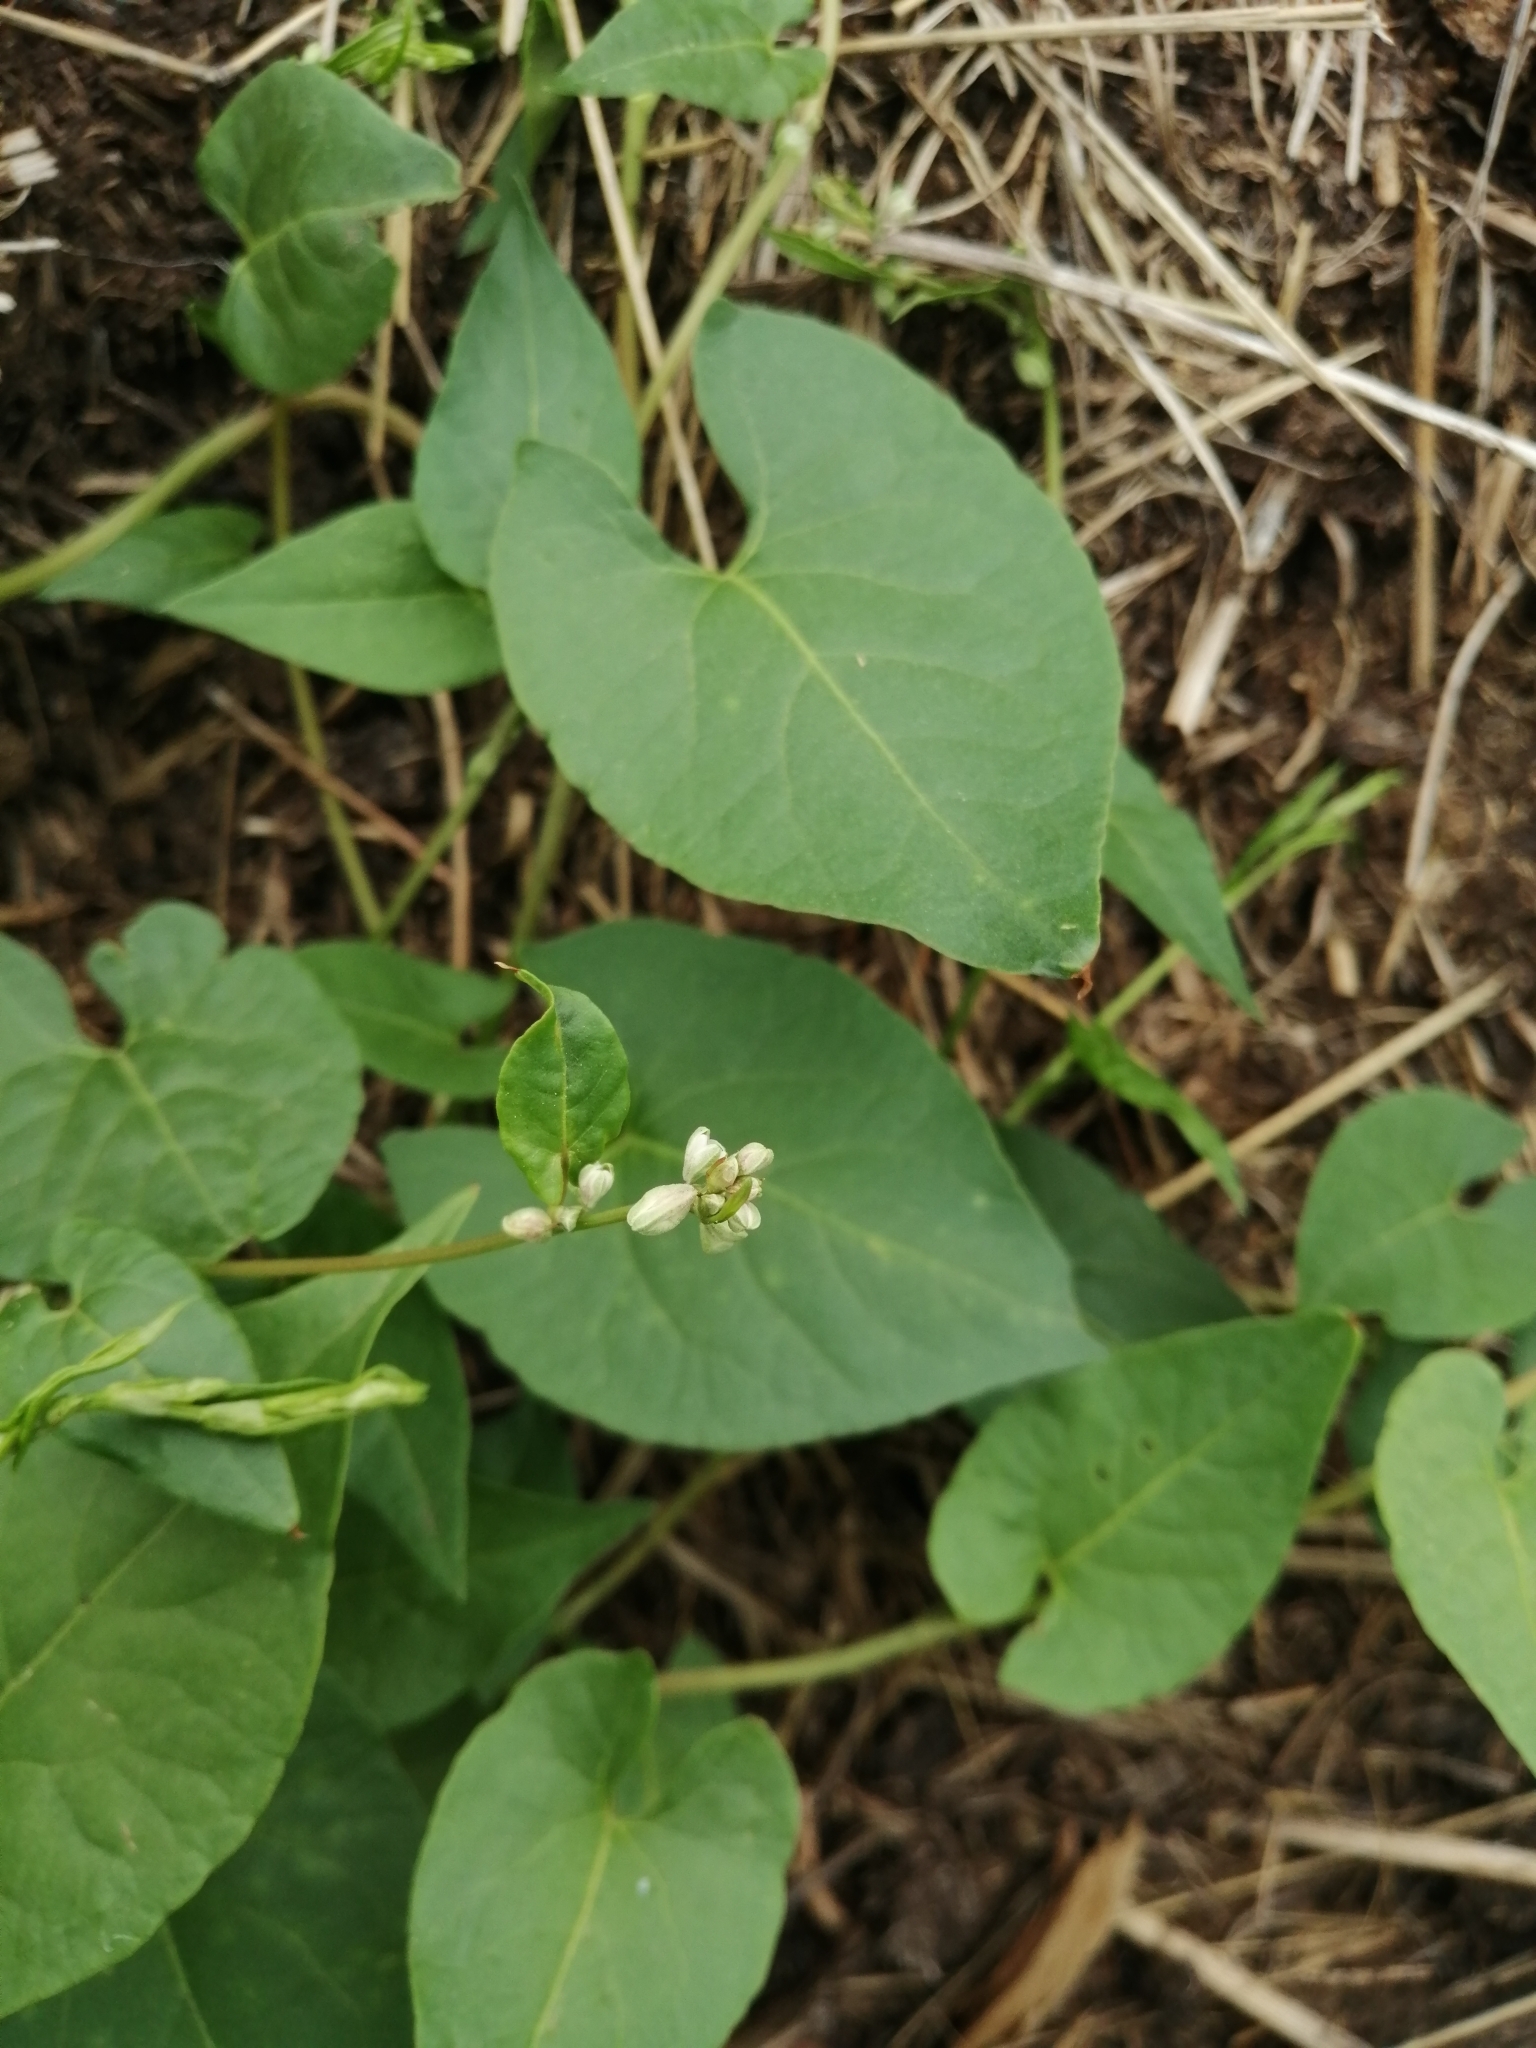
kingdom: Plantae
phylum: Tracheophyta
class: Magnoliopsida
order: Caryophyllales
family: Polygonaceae
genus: Fallopia
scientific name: Fallopia convolvulus
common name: Black bindweed
